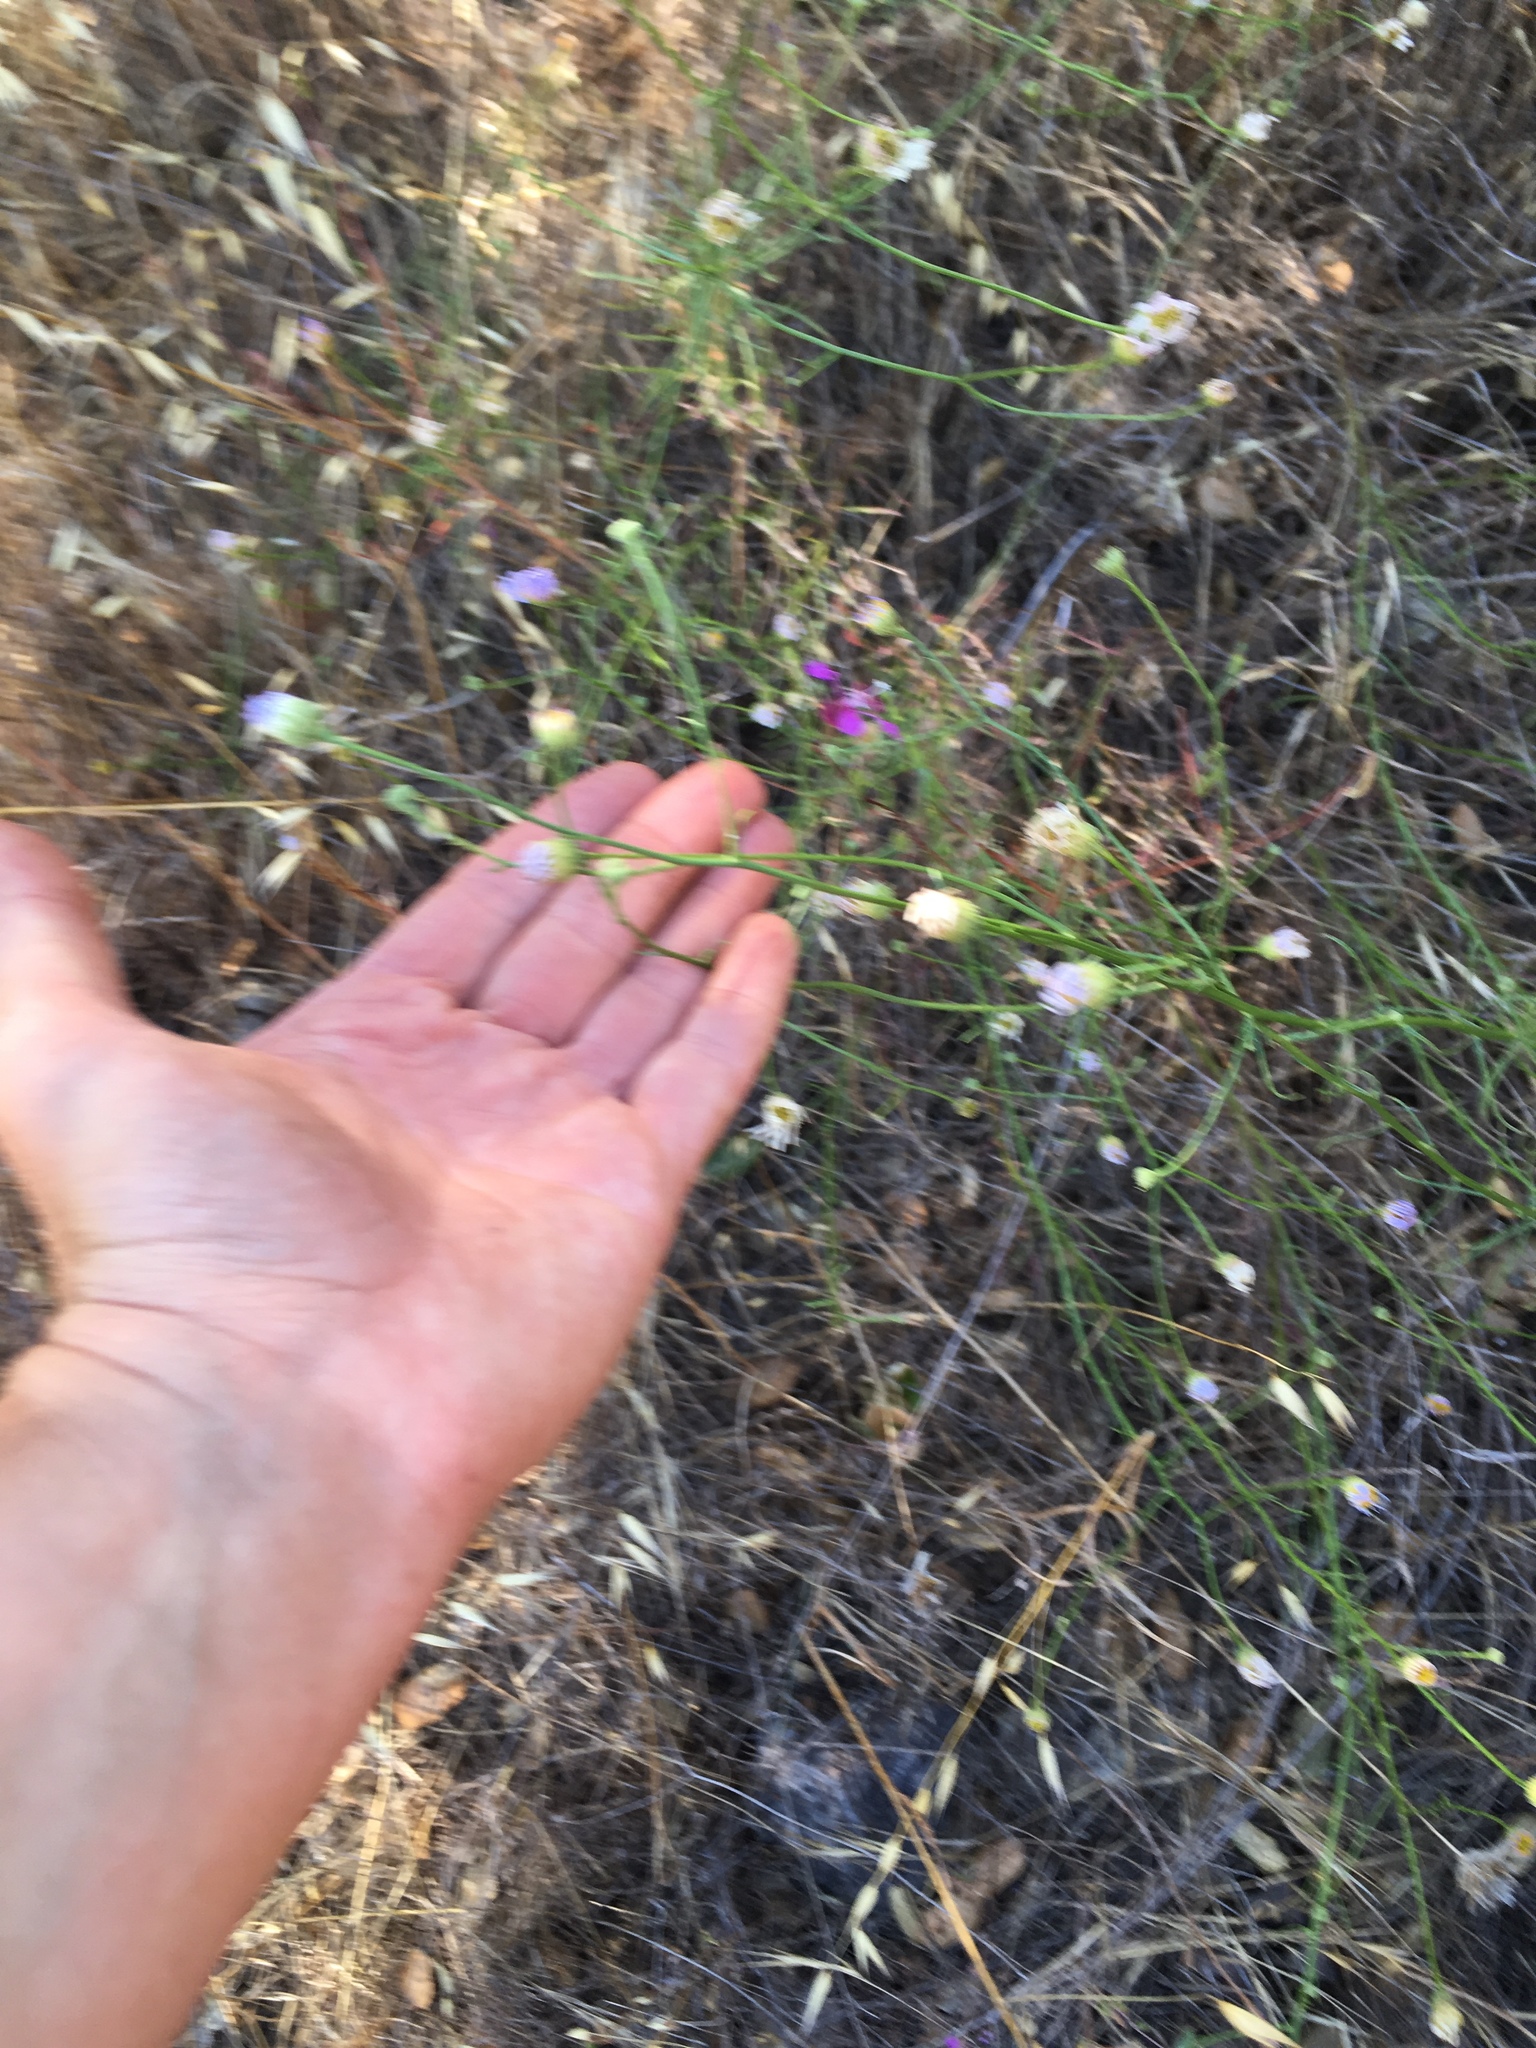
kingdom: Plantae
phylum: Tracheophyta
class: Magnoliopsida
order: Asterales
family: Asteraceae
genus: Erigeron
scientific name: Erigeron foliosus
